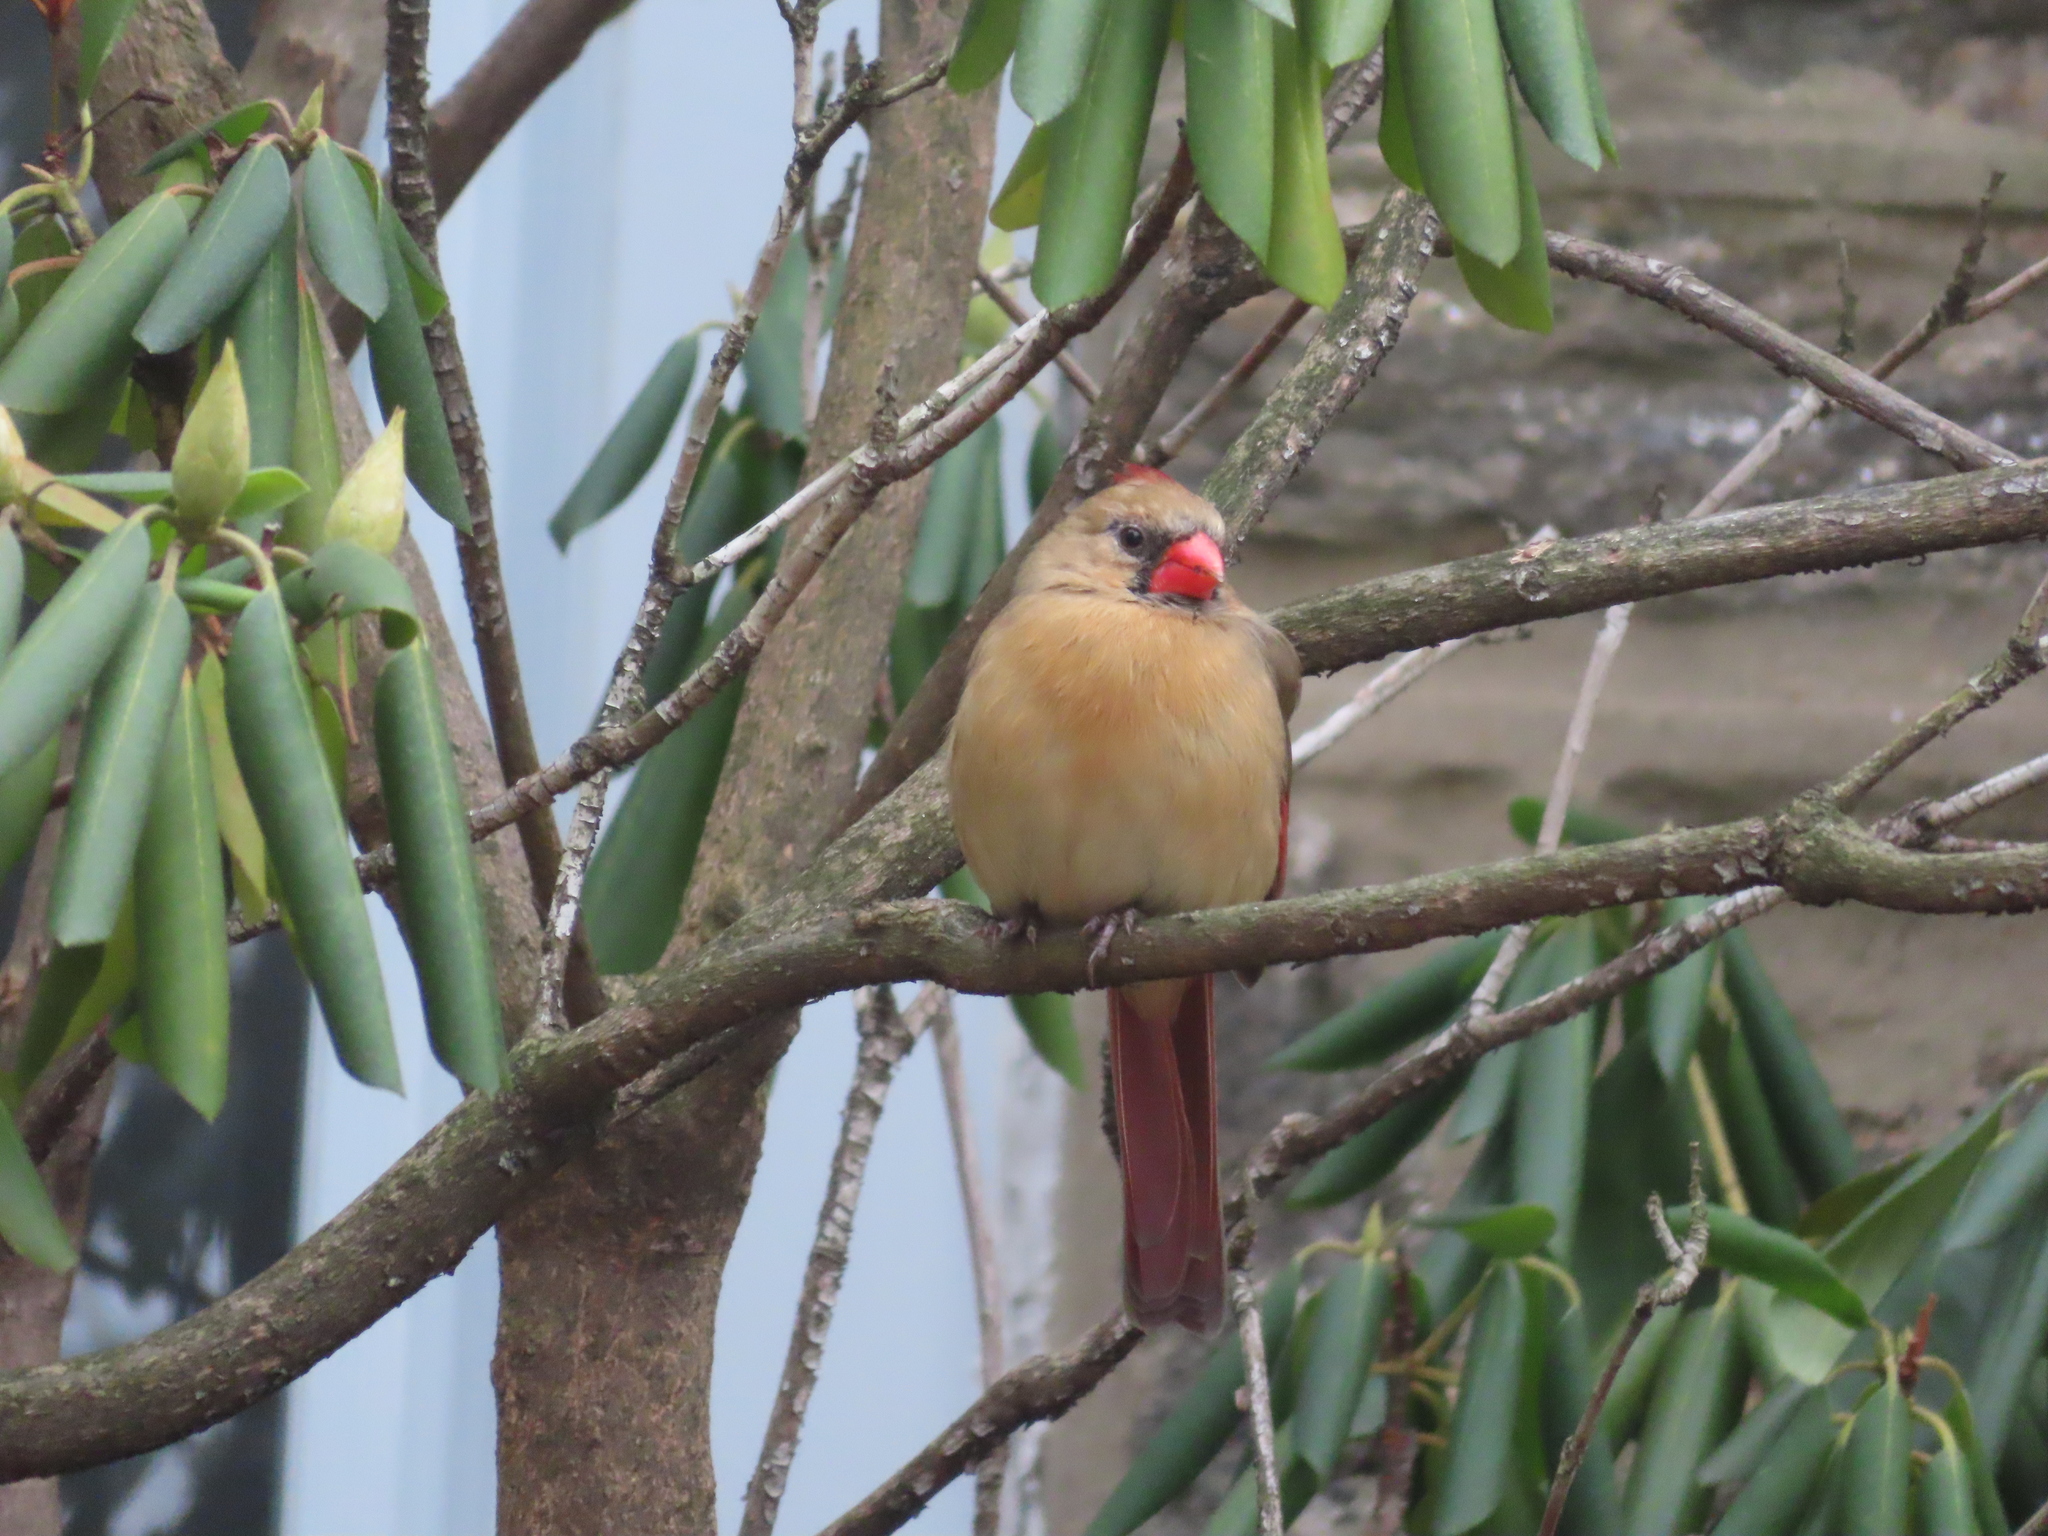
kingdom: Animalia
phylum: Chordata
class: Aves
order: Passeriformes
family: Cardinalidae
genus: Cardinalis
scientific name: Cardinalis cardinalis
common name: Northern cardinal
